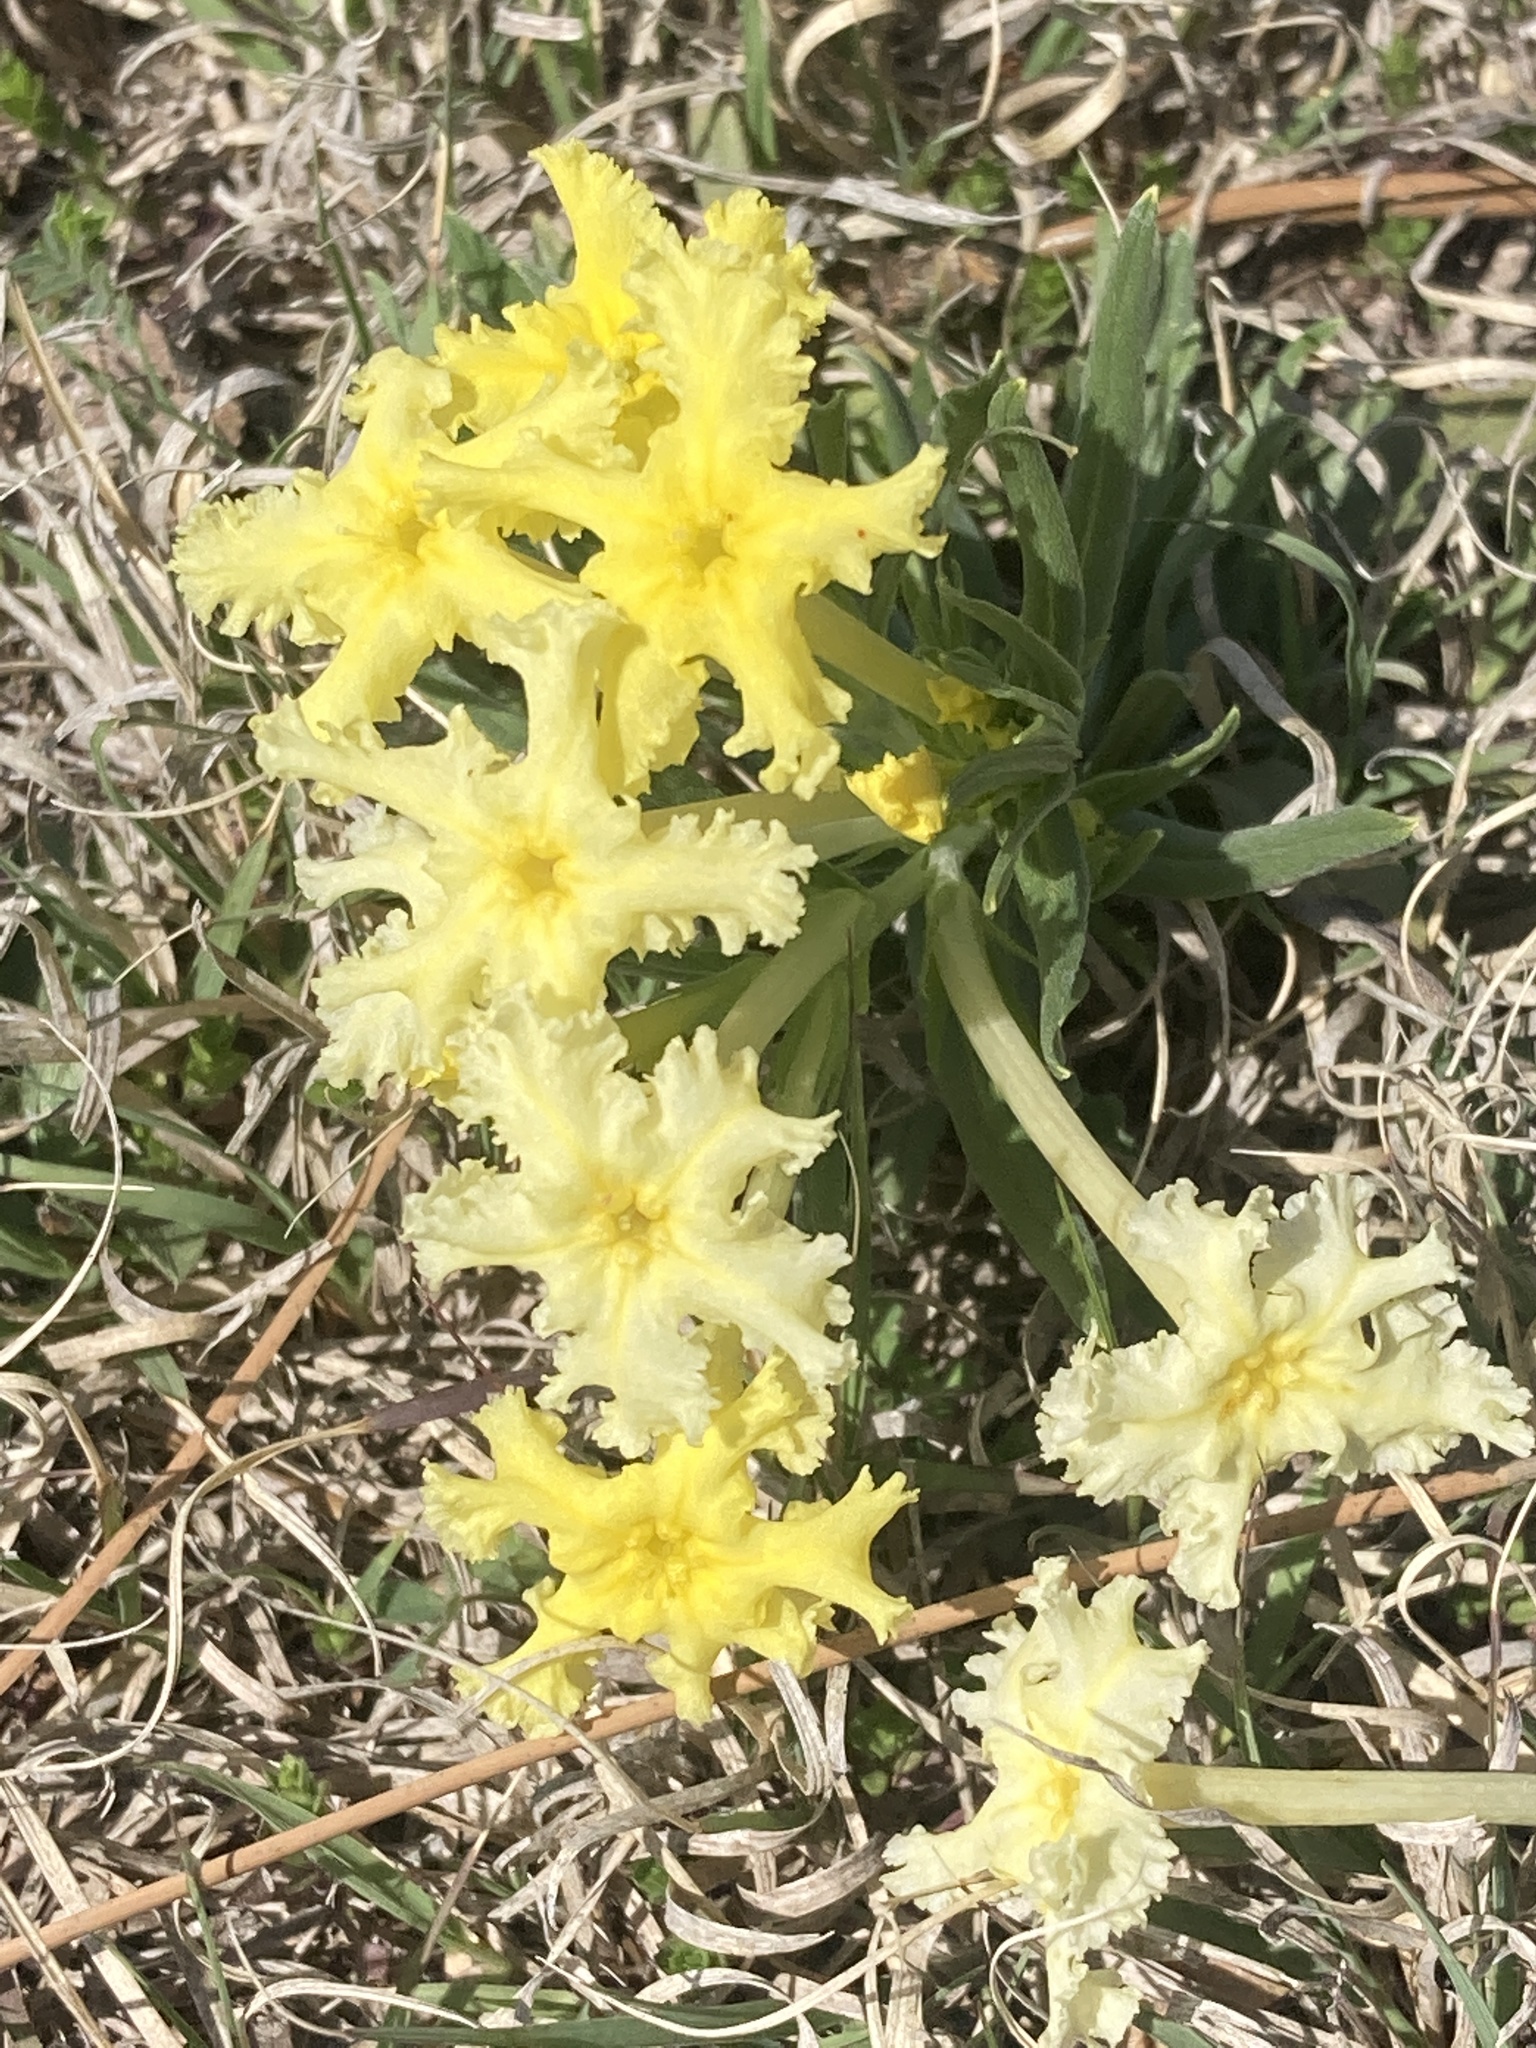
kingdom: Plantae
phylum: Tracheophyta
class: Magnoliopsida
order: Boraginales
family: Boraginaceae
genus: Lithospermum
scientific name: Lithospermum incisum
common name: Fringed gromwell
